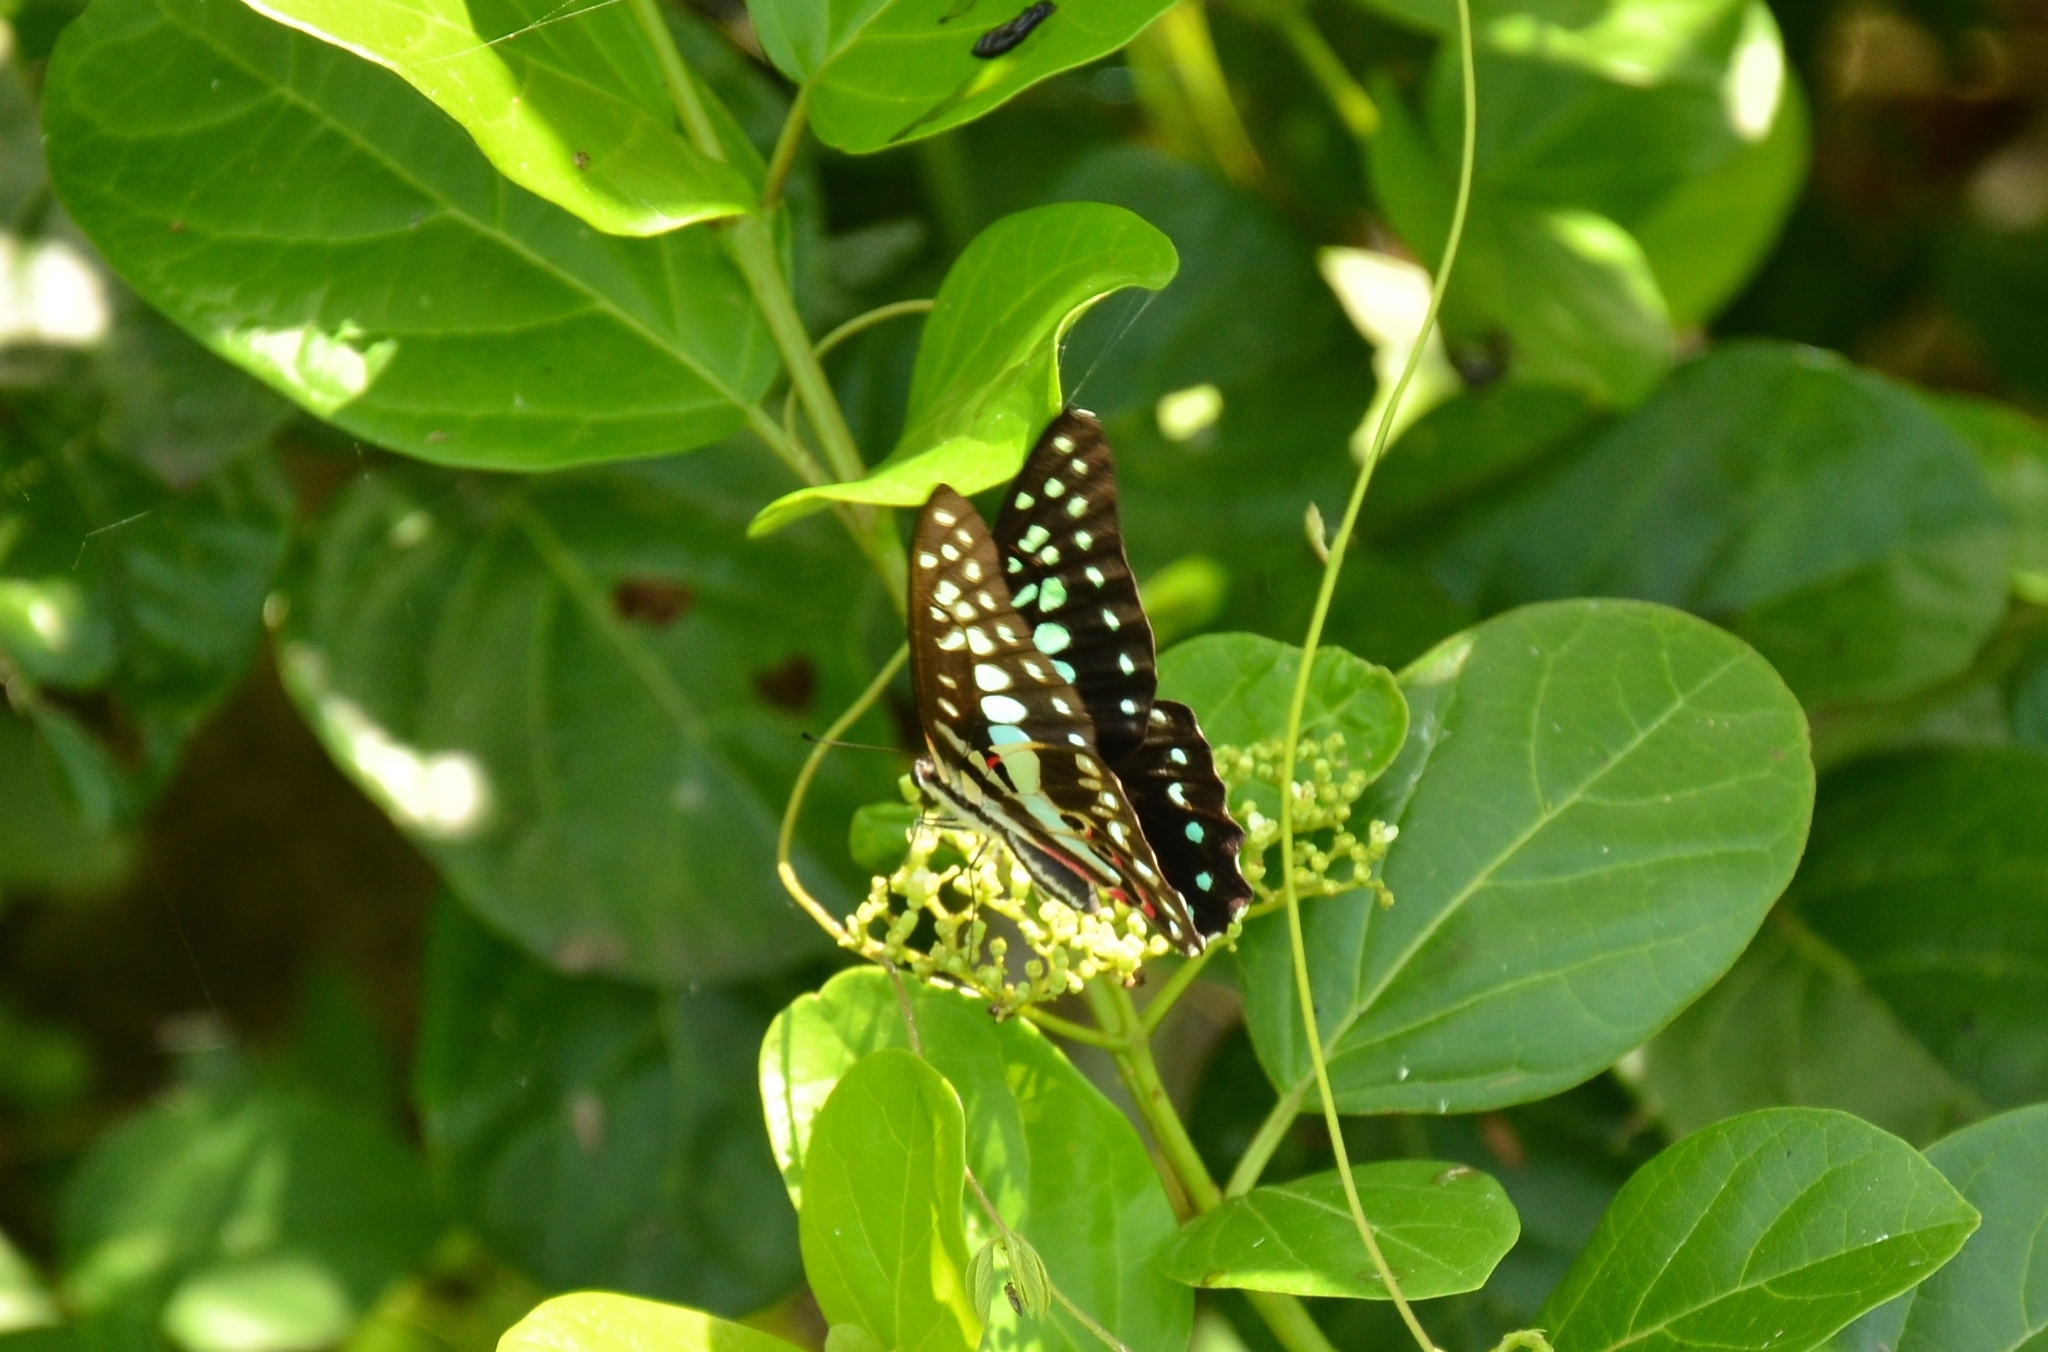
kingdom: Animalia
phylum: Arthropoda
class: Insecta
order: Lepidoptera
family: Papilionidae
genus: Graphium
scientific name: Graphium doson
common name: Common jay
